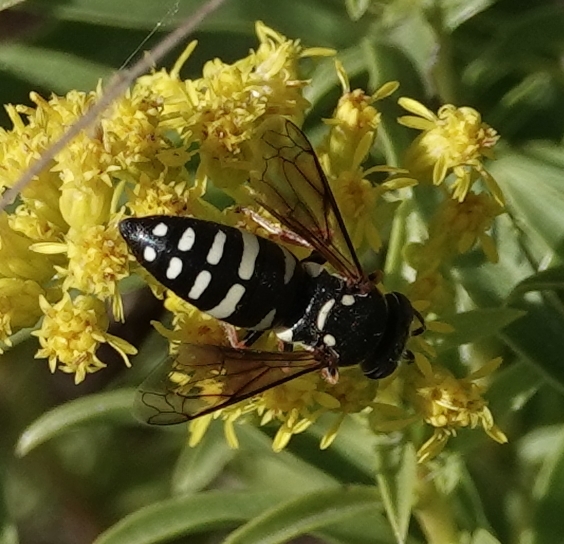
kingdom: Animalia
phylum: Arthropoda
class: Insecta
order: Hymenoptera
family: Crabronidae
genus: Bicyrtes
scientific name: Bicyrtes ventralis
